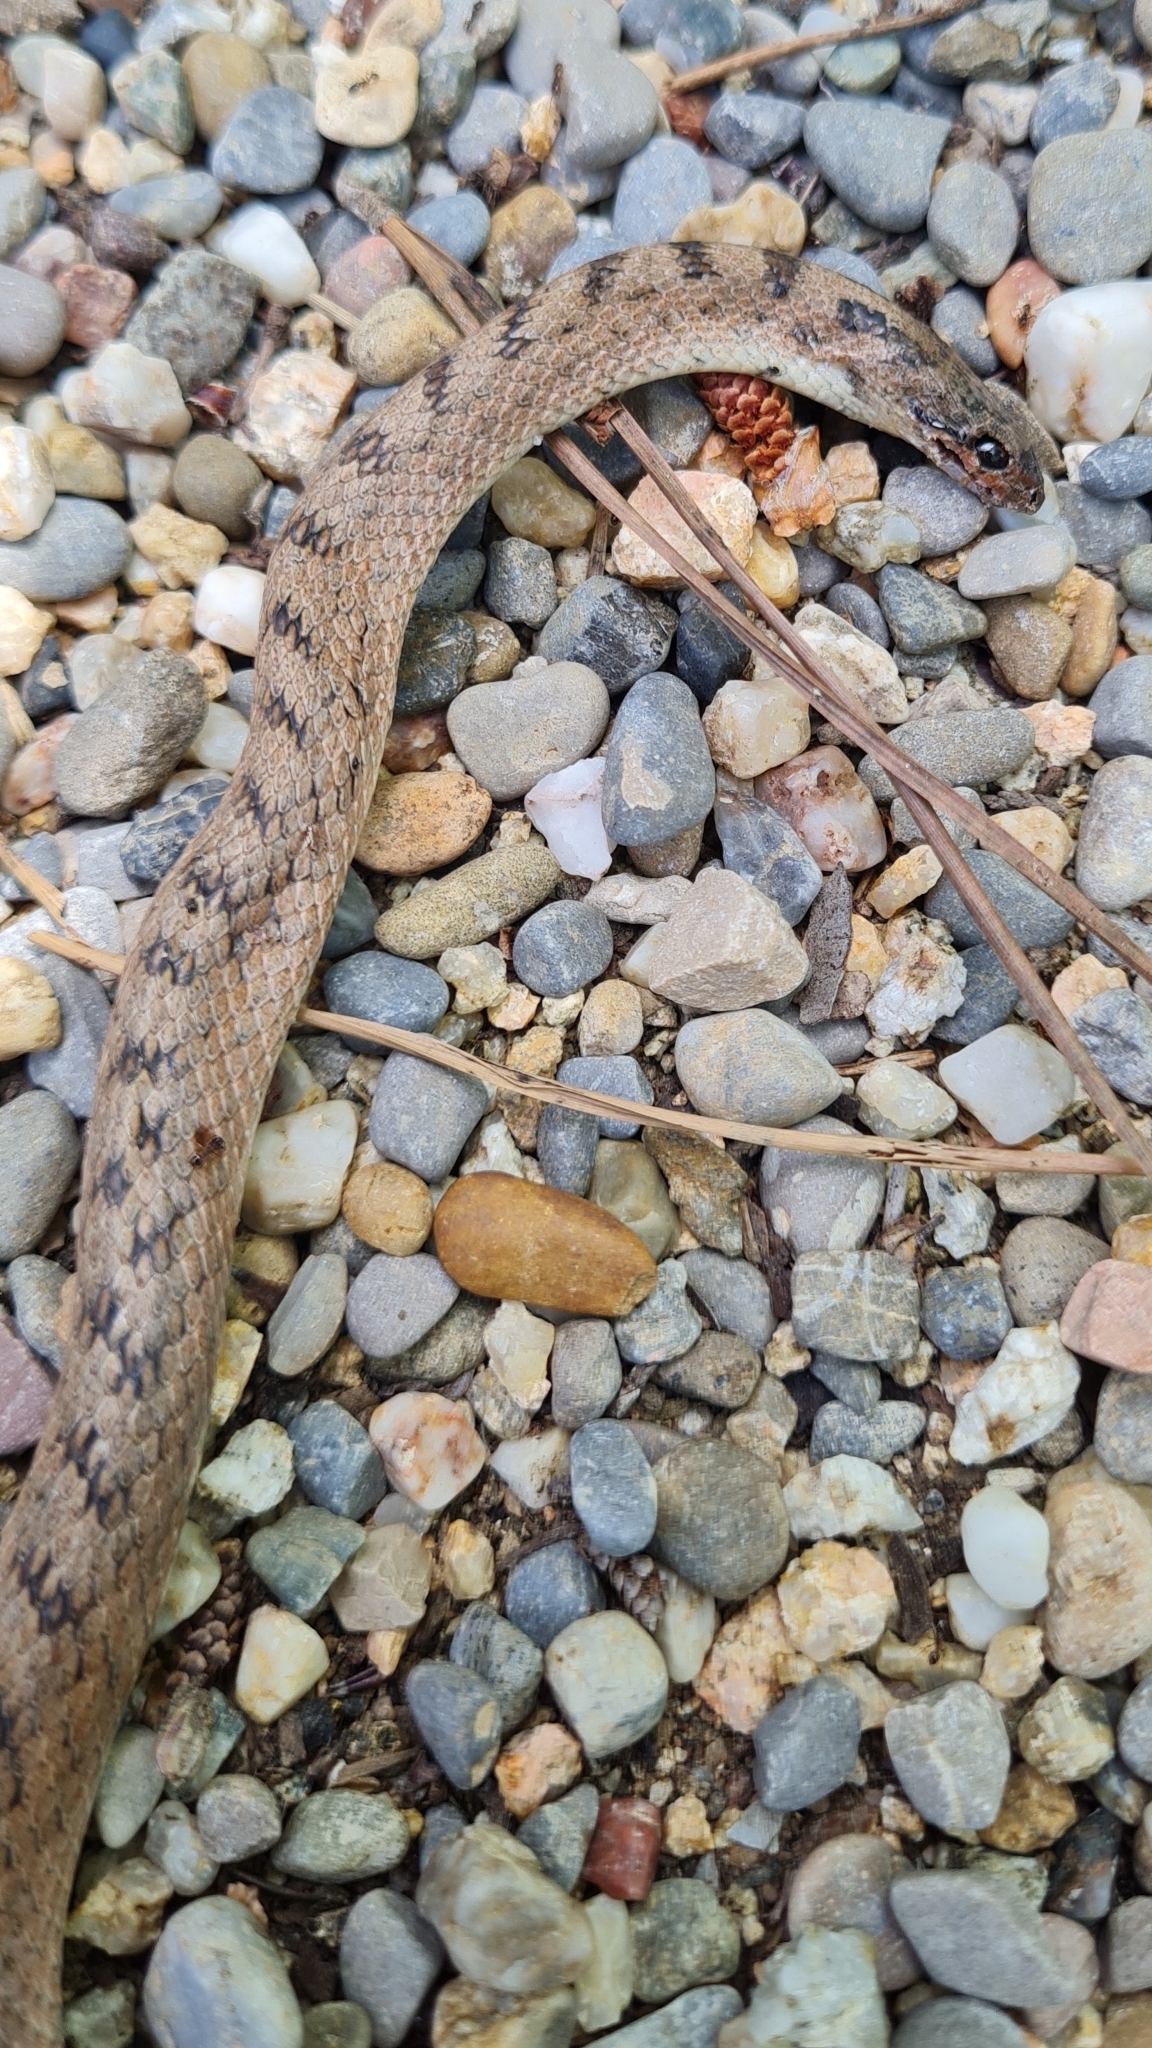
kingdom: Animalia
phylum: Chordata
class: Squamata
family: Colubridae
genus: Coronella
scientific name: Coronella girondica
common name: Southern smooth snake
